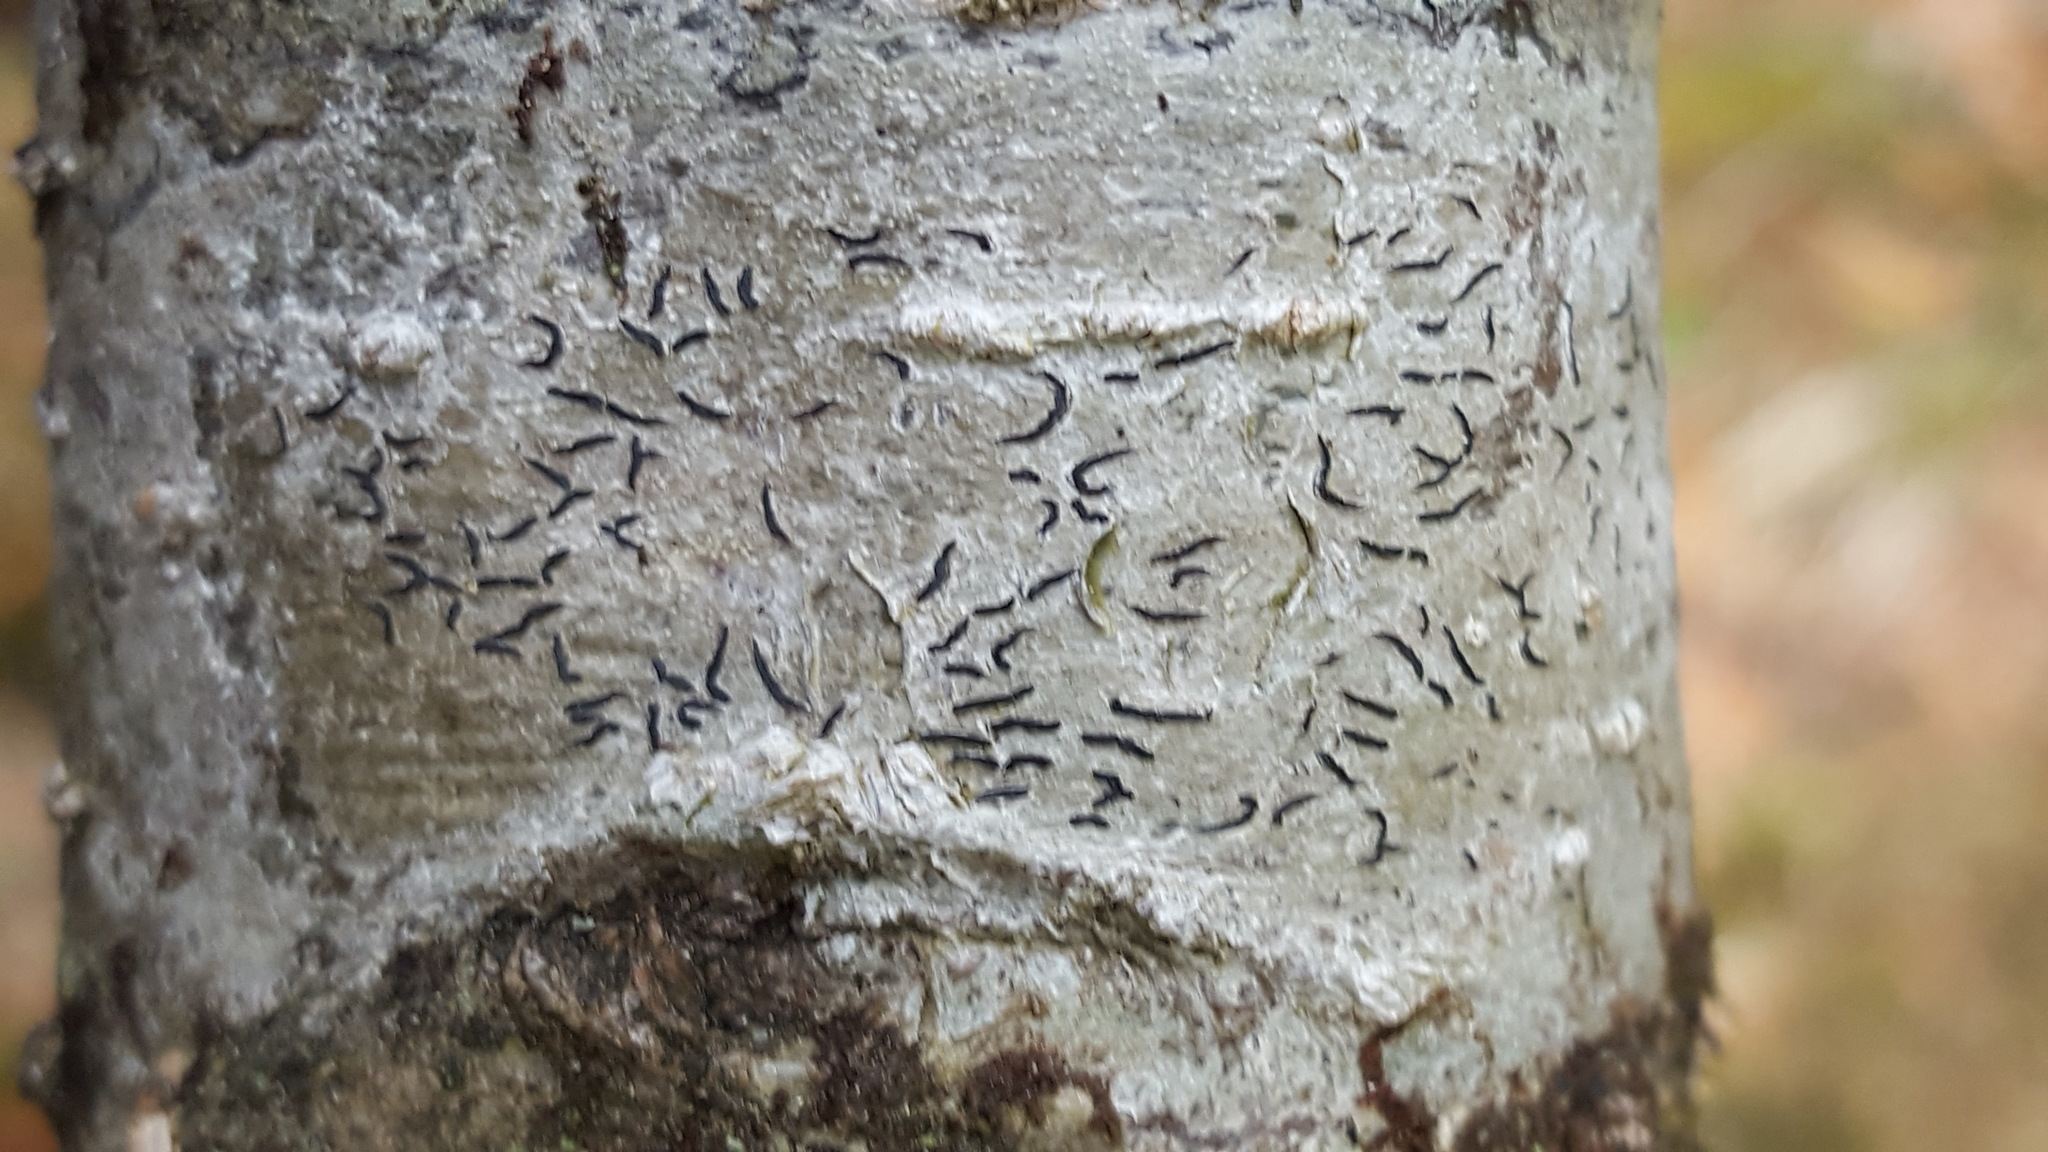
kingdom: Fungi
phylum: Ascomycota
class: Lecanoromycetes
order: Ostropales
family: Graphidaceae
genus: Graphis
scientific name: Graphis scripta
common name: Script lichen
